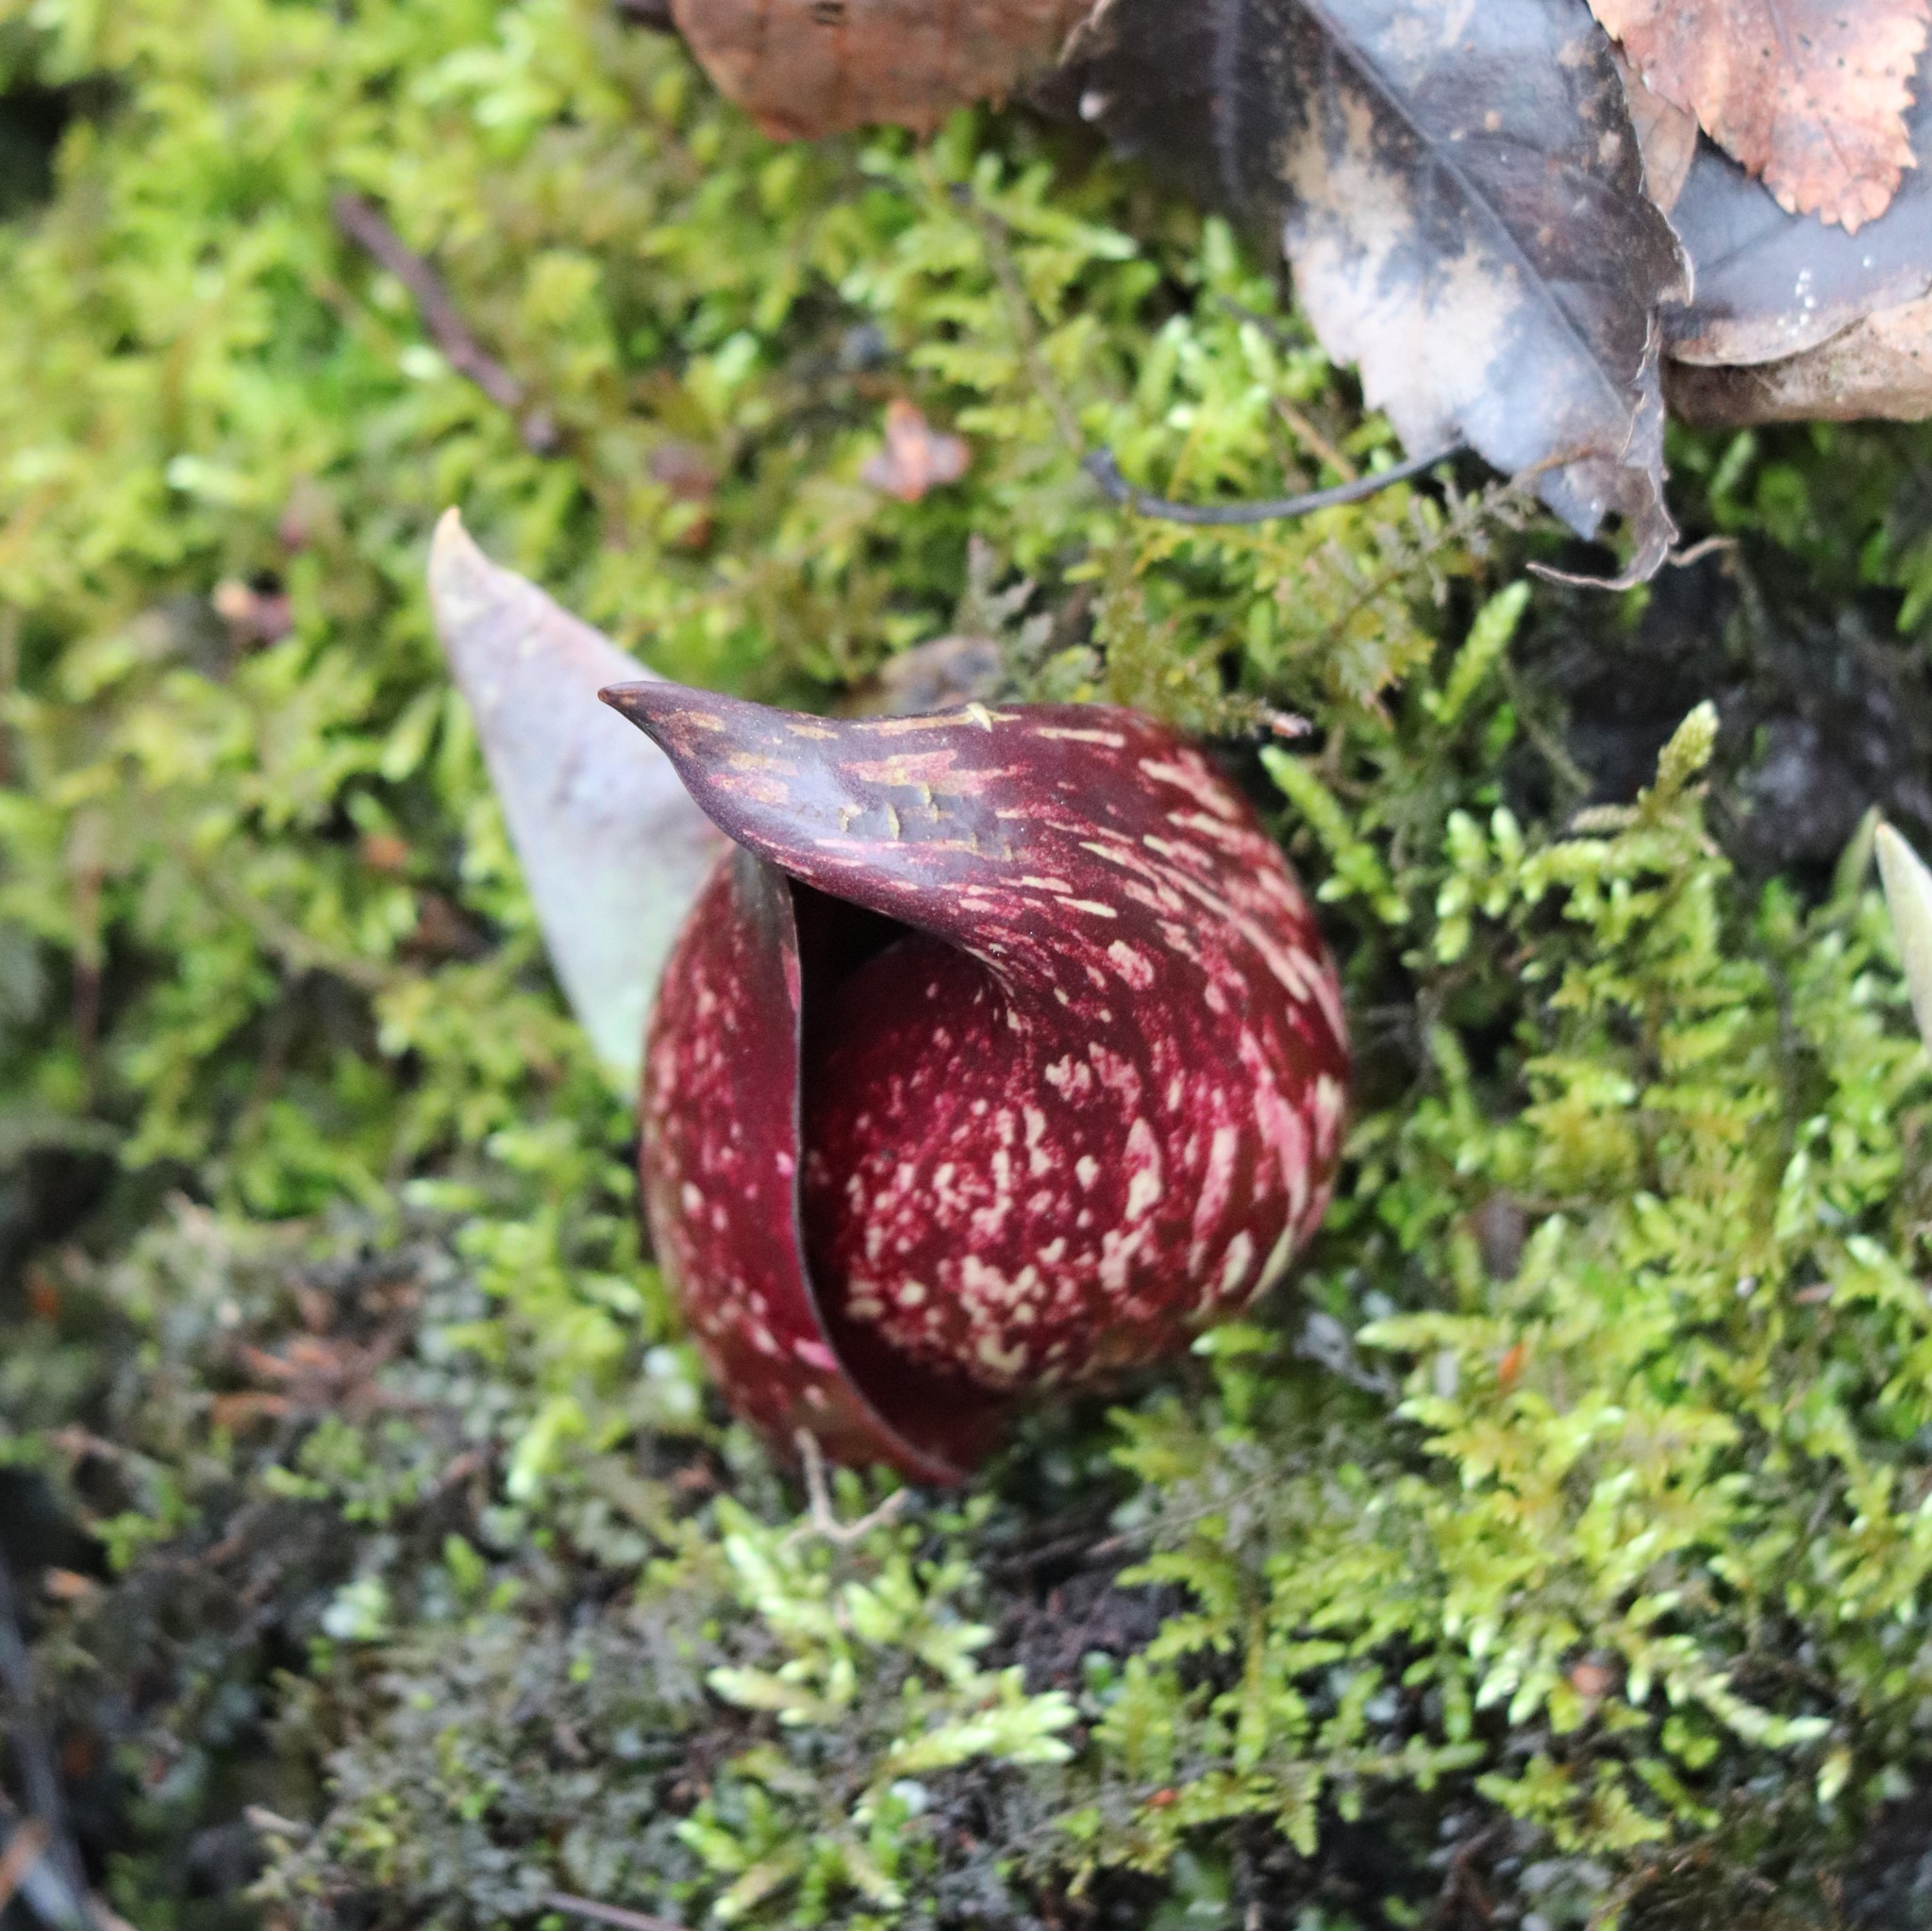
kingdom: Plantae
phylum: Tracheophyta
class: Liliopsida
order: Alismatales
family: Araceae
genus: Symplocarpus
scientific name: Symplocarpus foetidus
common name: Eastern skunk cabbage
